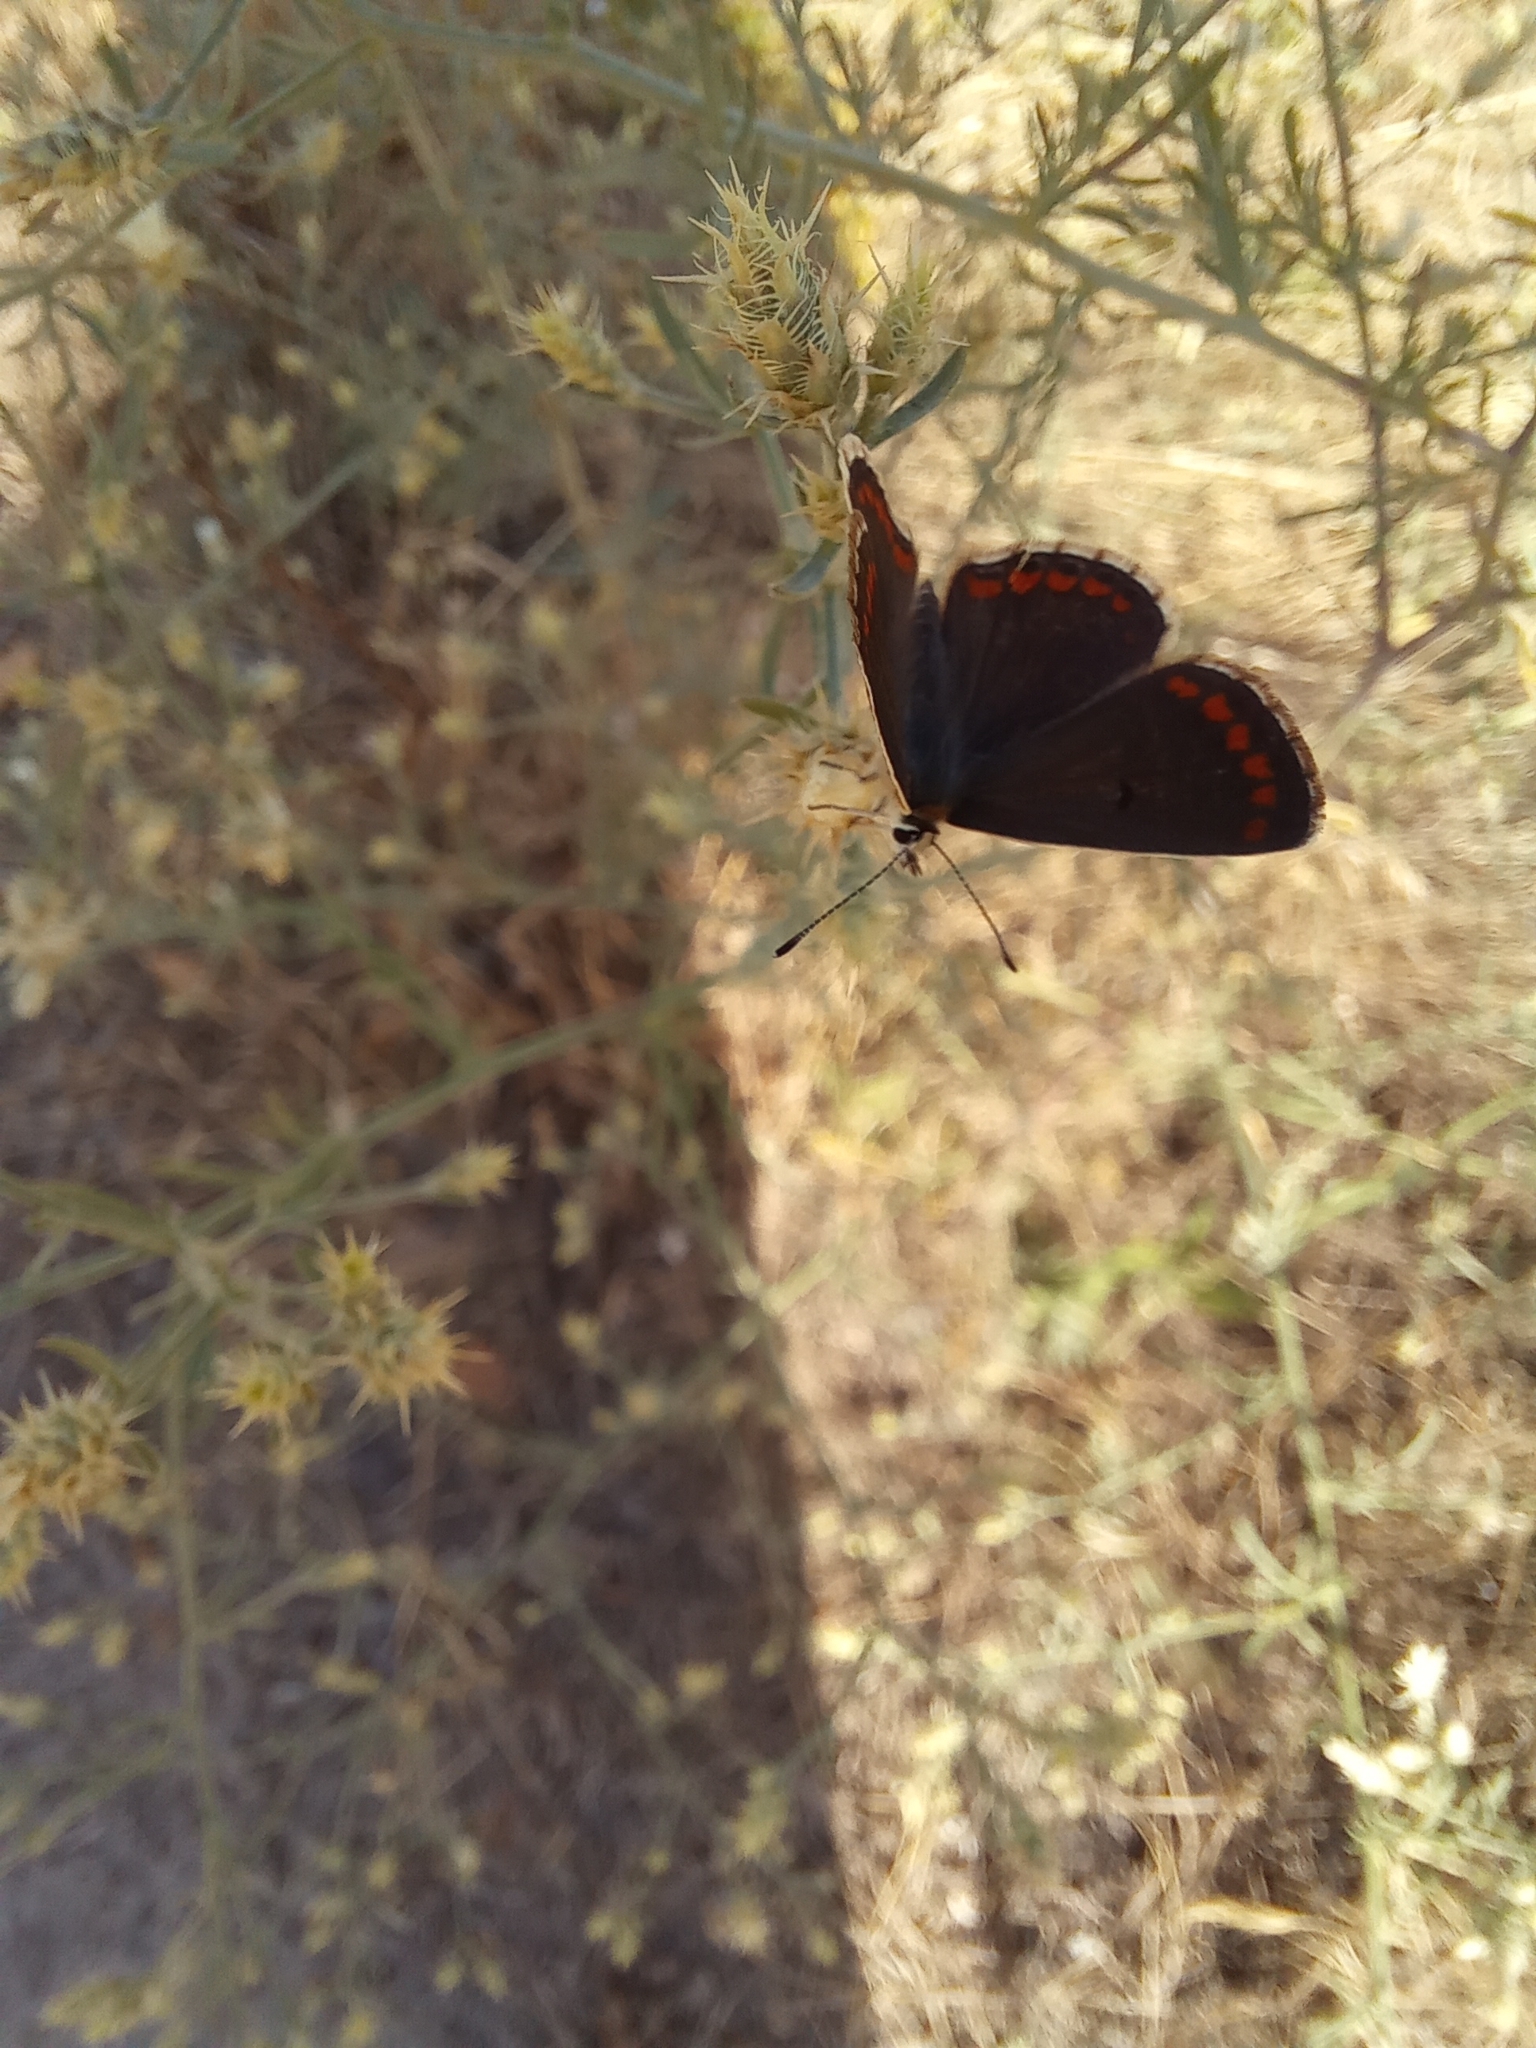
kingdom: Animalia
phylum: Arthropoda
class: Insecta
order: Lepidoptera
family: Lycaenidae
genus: Aricia
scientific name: Aricia agestis
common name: Brown argus
